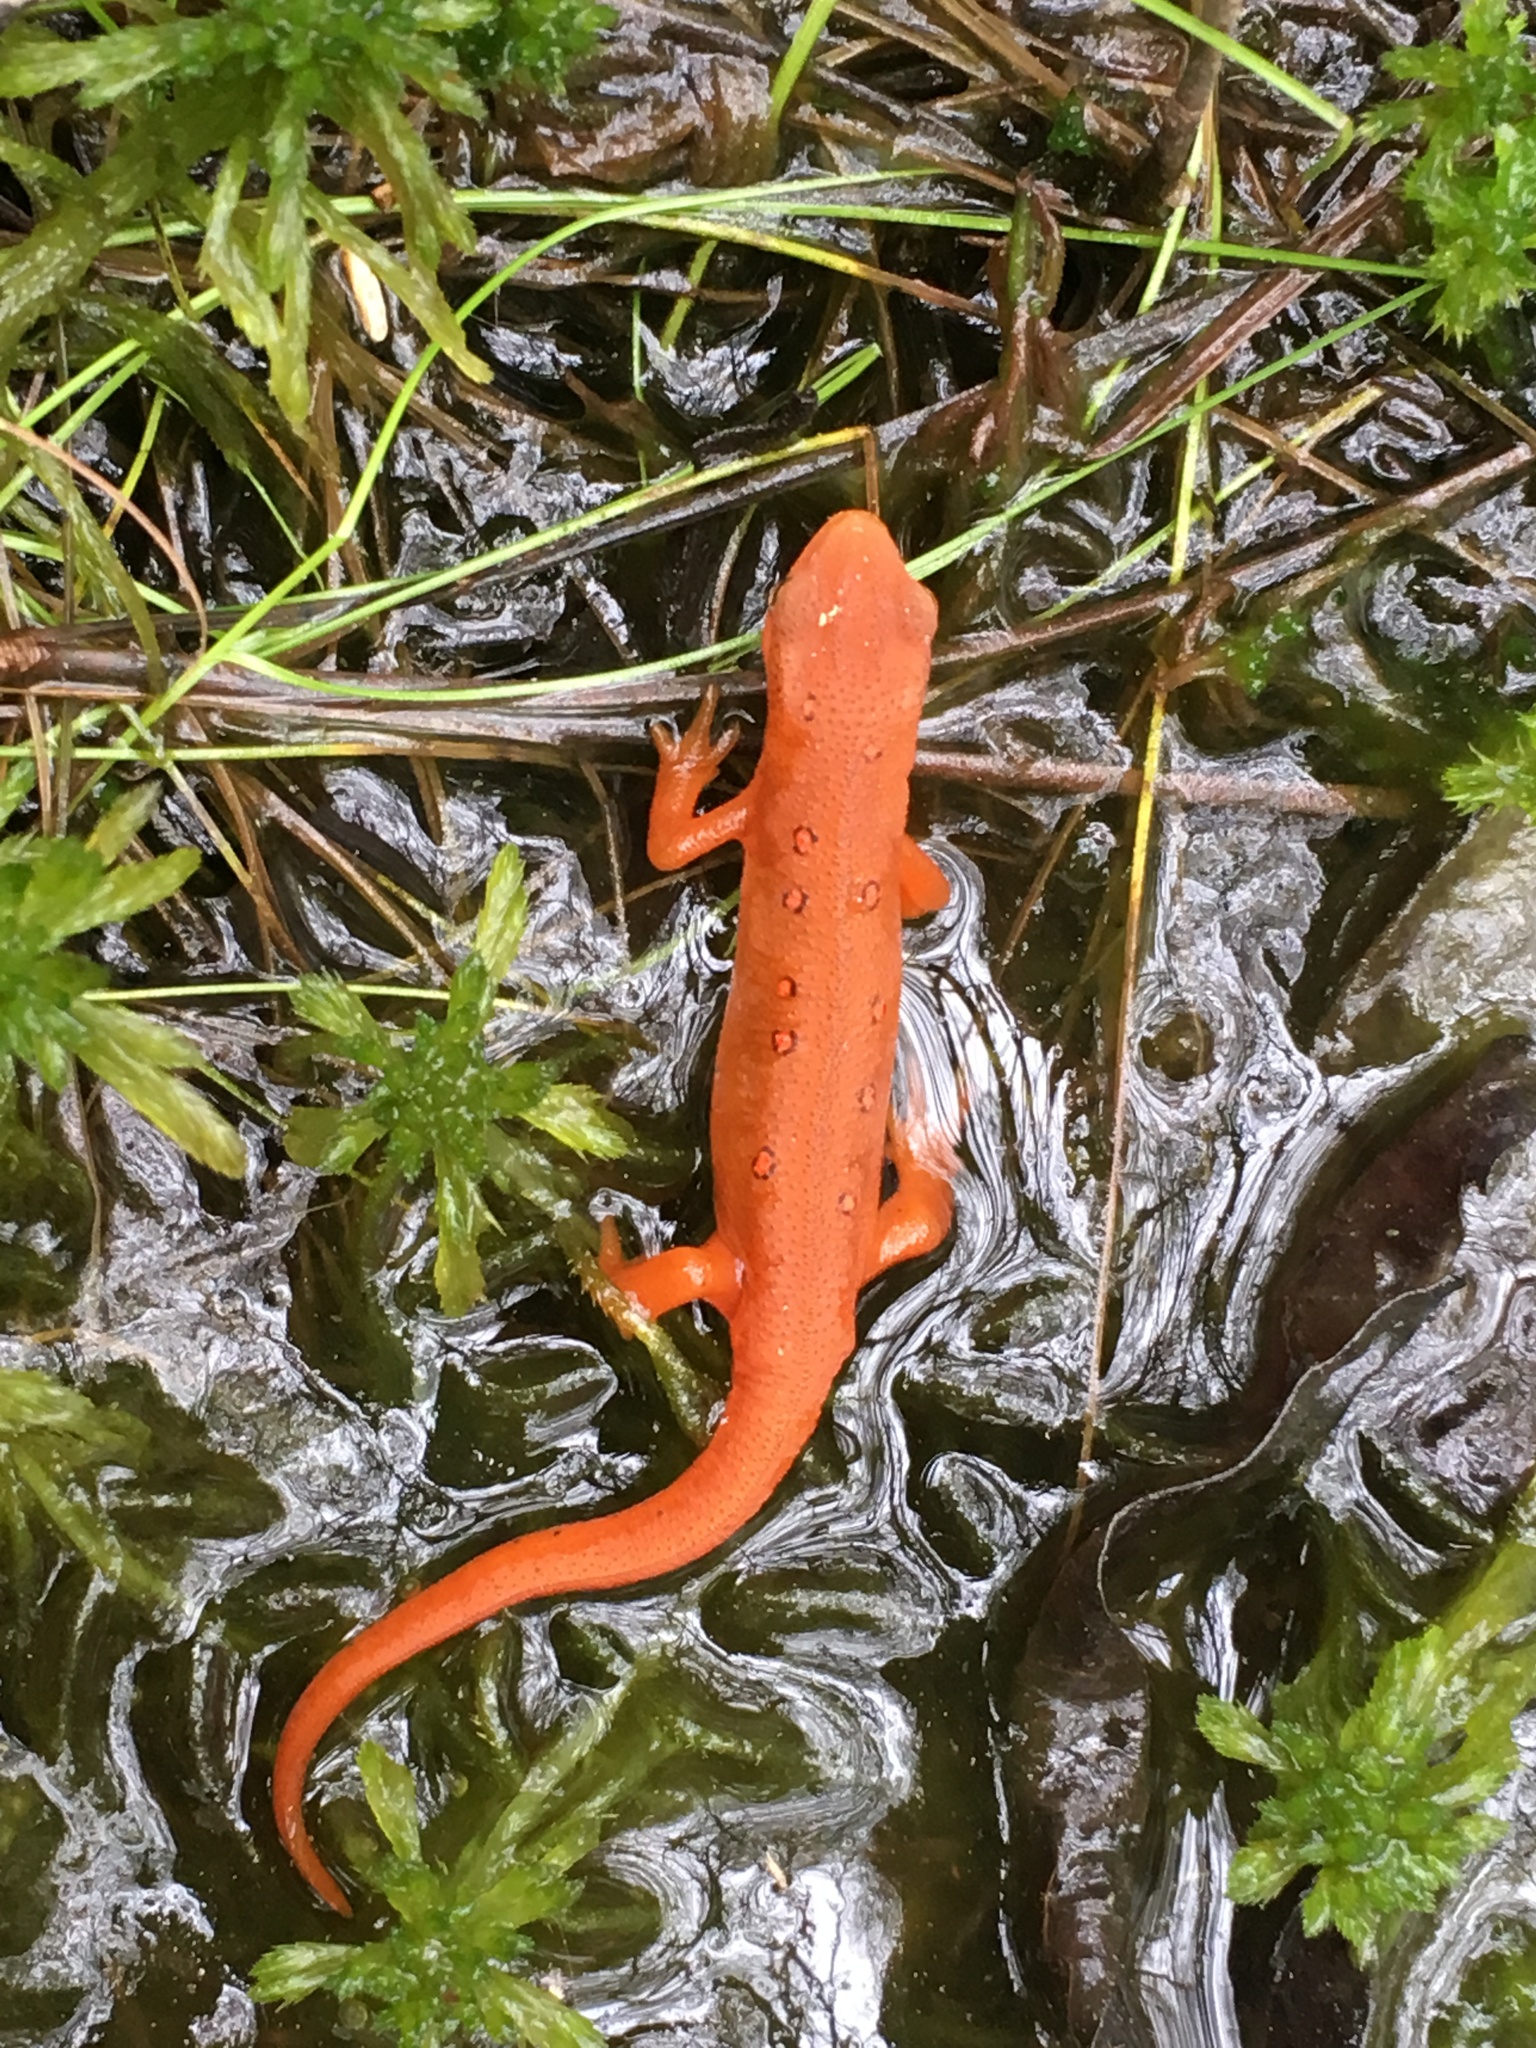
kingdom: Animalia
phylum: Chordata
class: Amphibia
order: Caudata
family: Salamandridae
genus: Notophthalmus
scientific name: Notophthalmus viridescens
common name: Eastern newt
